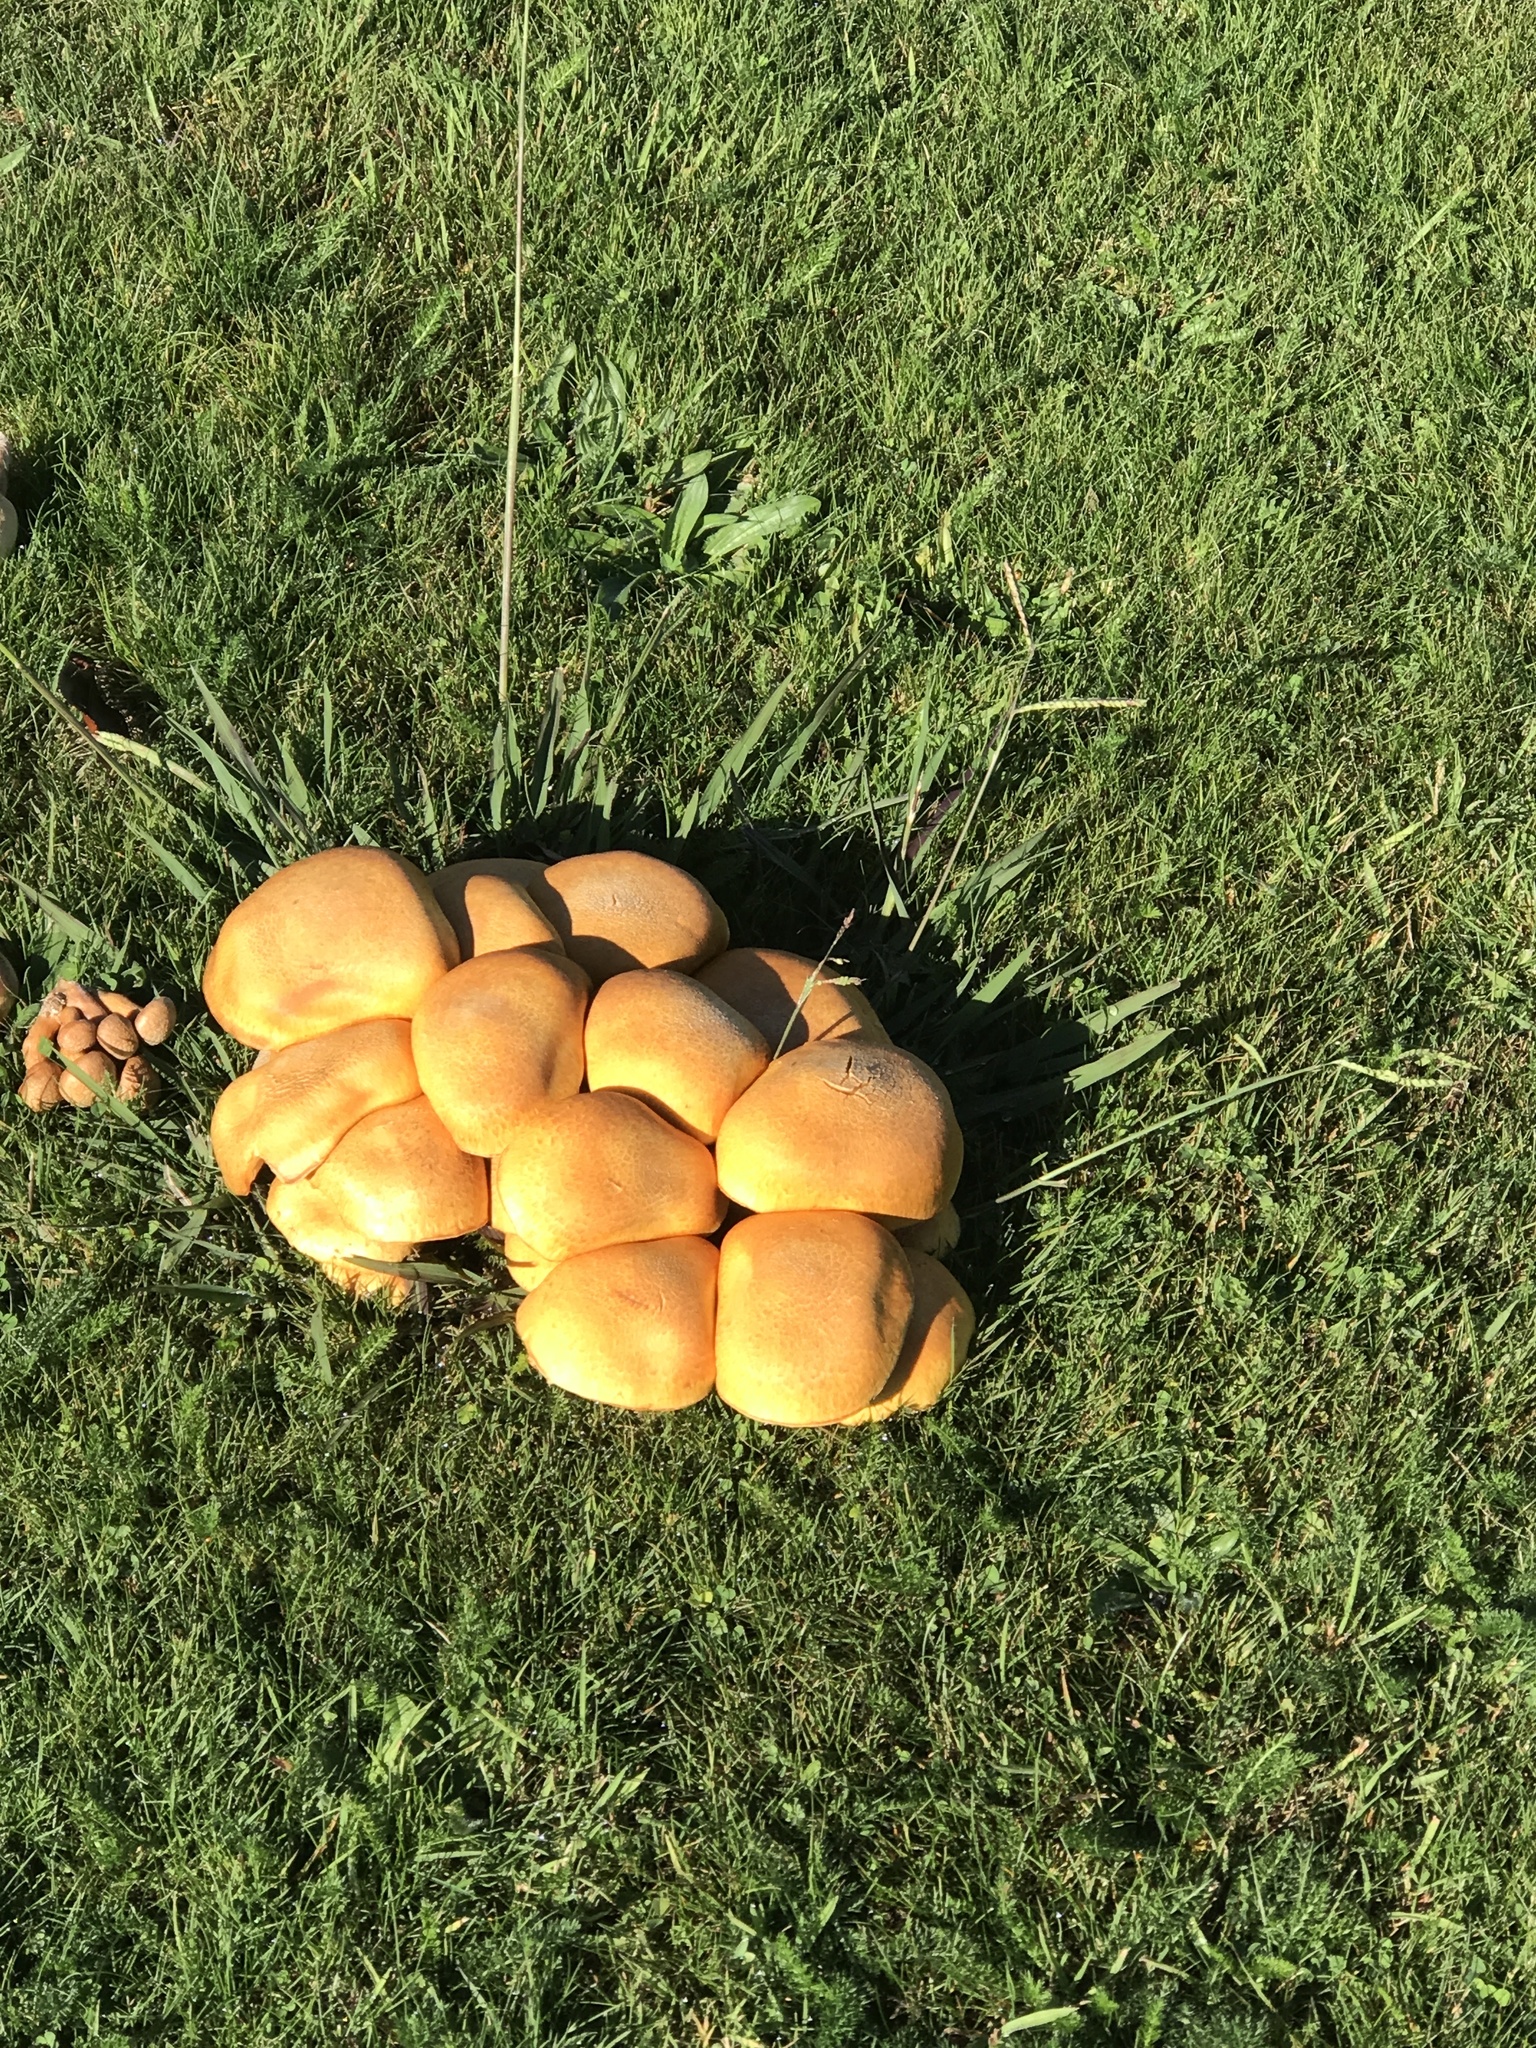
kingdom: Fungi
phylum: Basidiomycota
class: Agaricomycetes
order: Agaricales
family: Hymenogastraceae
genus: Gymnopilus
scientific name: Gymnopilus junonius
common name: Spectacular rustgill
